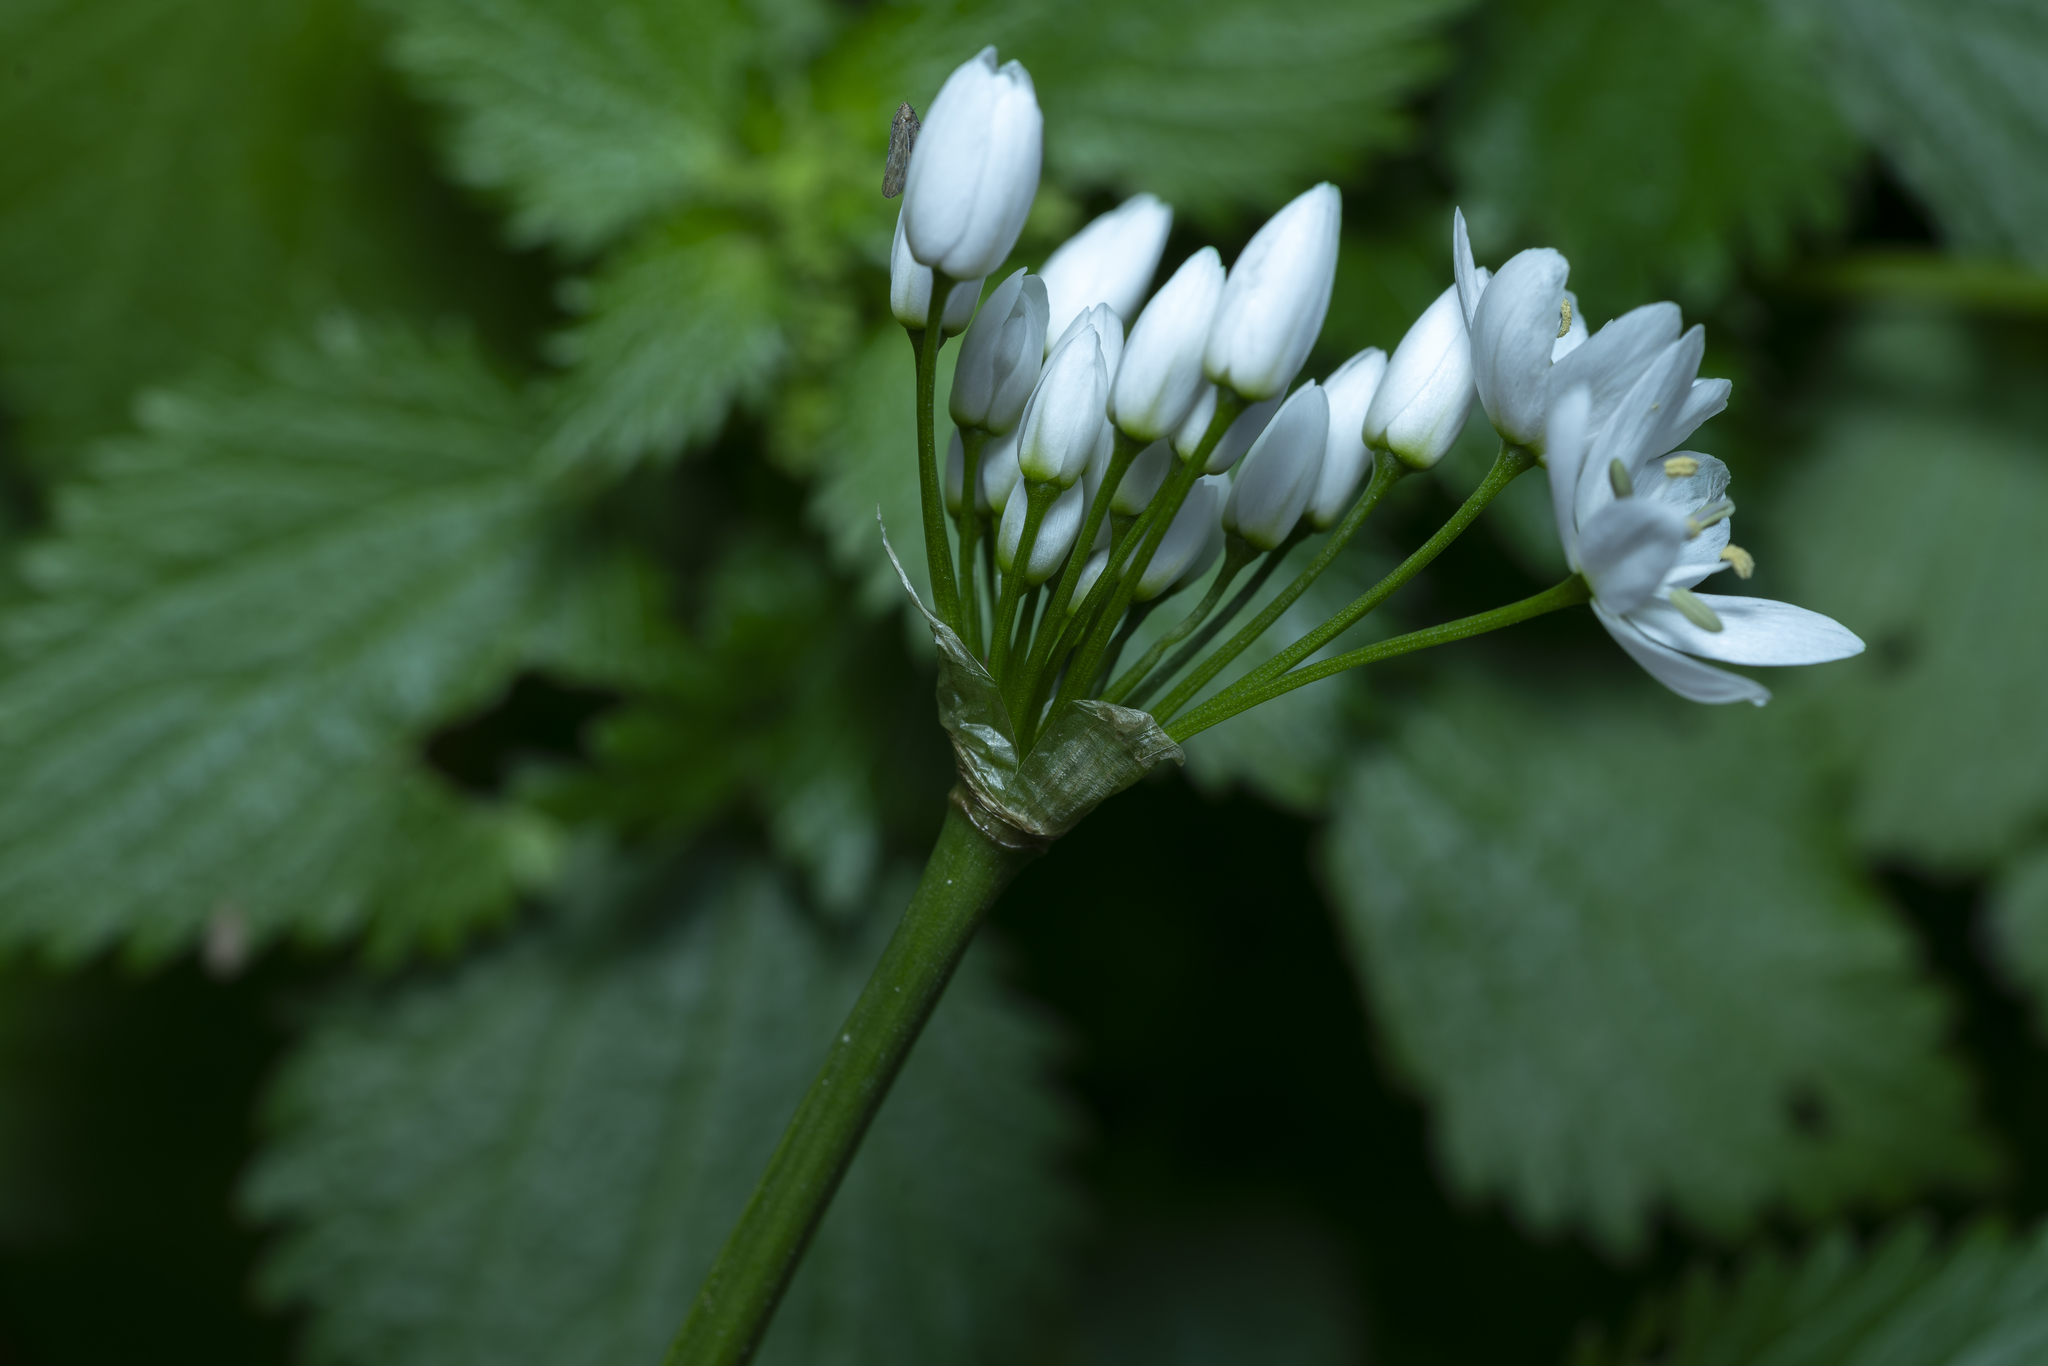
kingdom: Plantae
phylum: Tracheophyta
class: Liliopsida
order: Asparagales
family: Amaryllidaceae
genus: Allium
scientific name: Allium neapolitanum
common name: Neapolitan garlic
